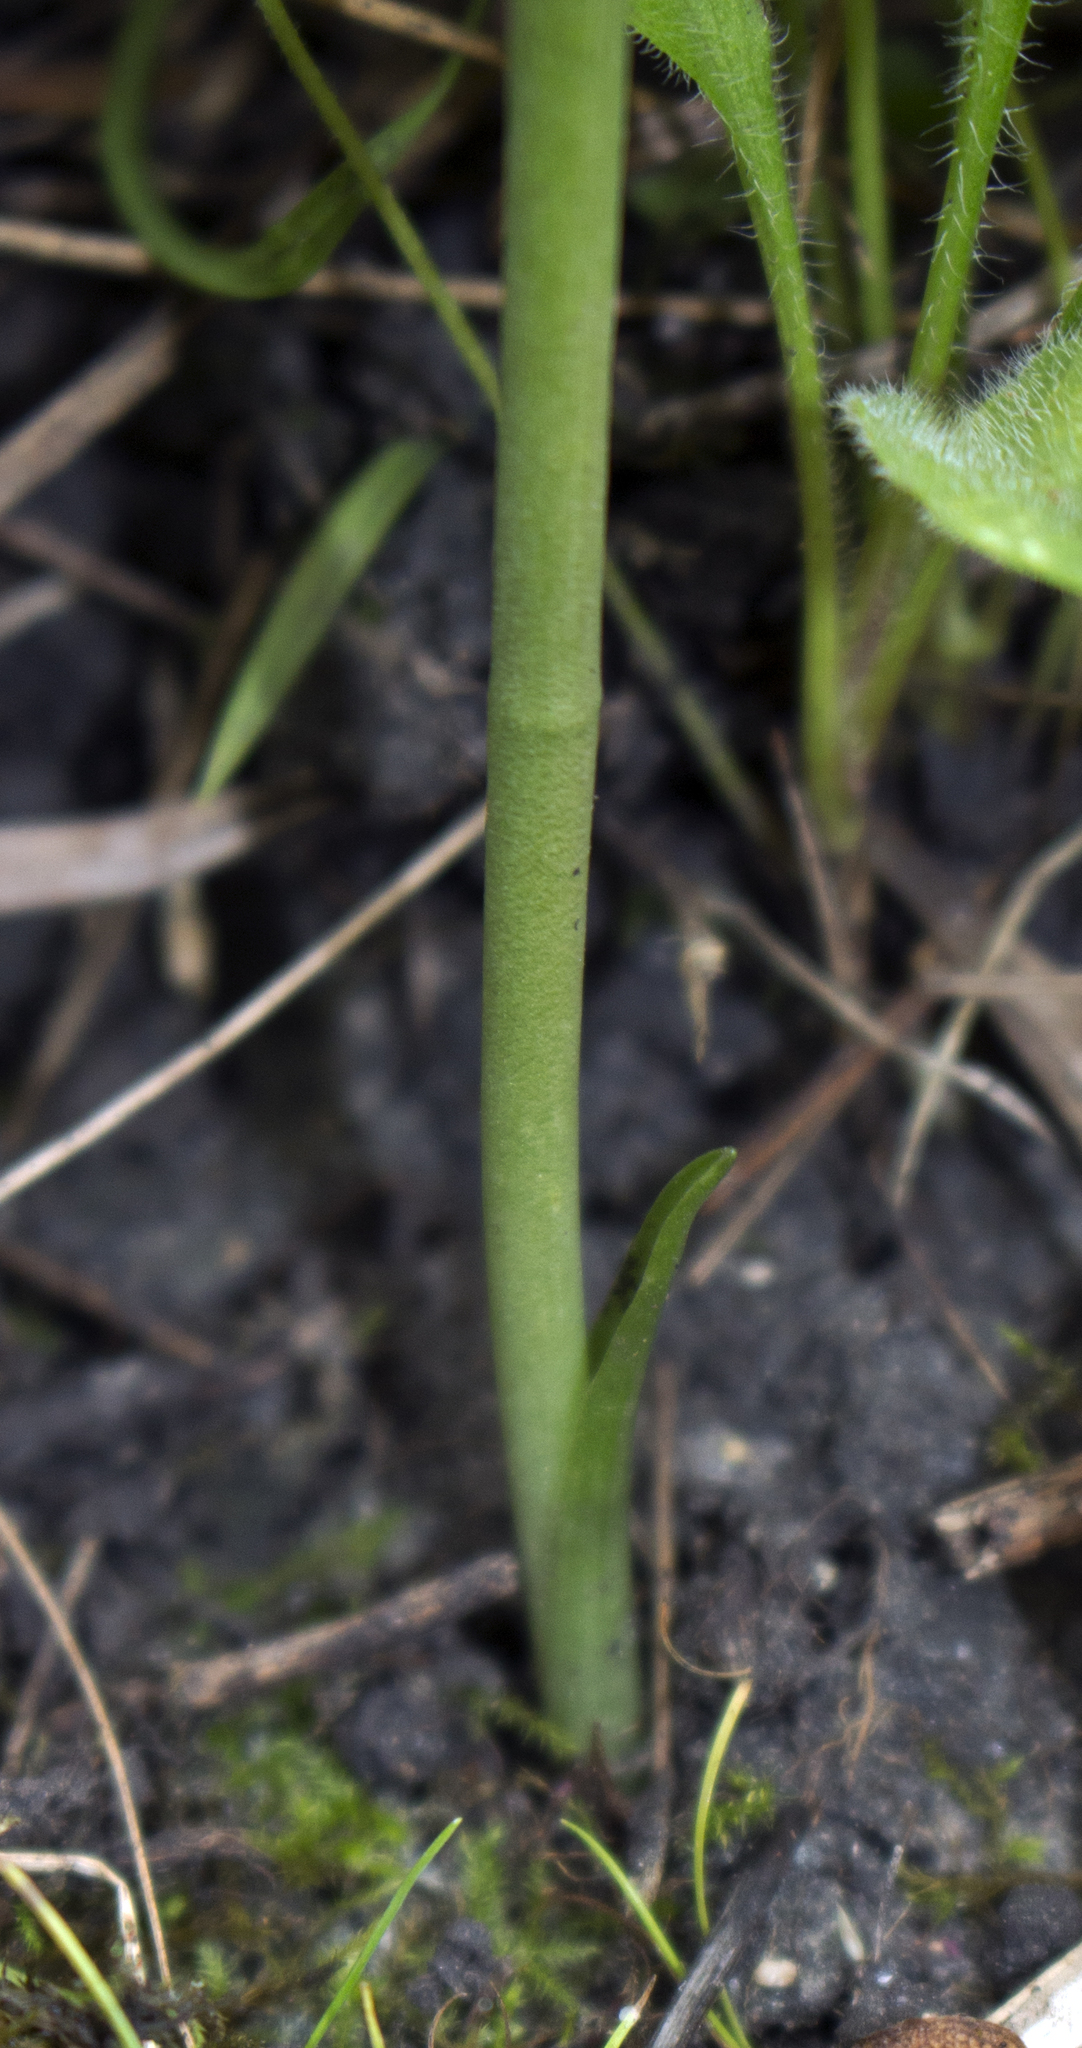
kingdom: Plantae
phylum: Tracheophyta
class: Liliopsida
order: Asparagales
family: Orchidaceae
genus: Spiranthes
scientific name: Spiranthes magnicamporum
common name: Great plains ladies'-tresses
